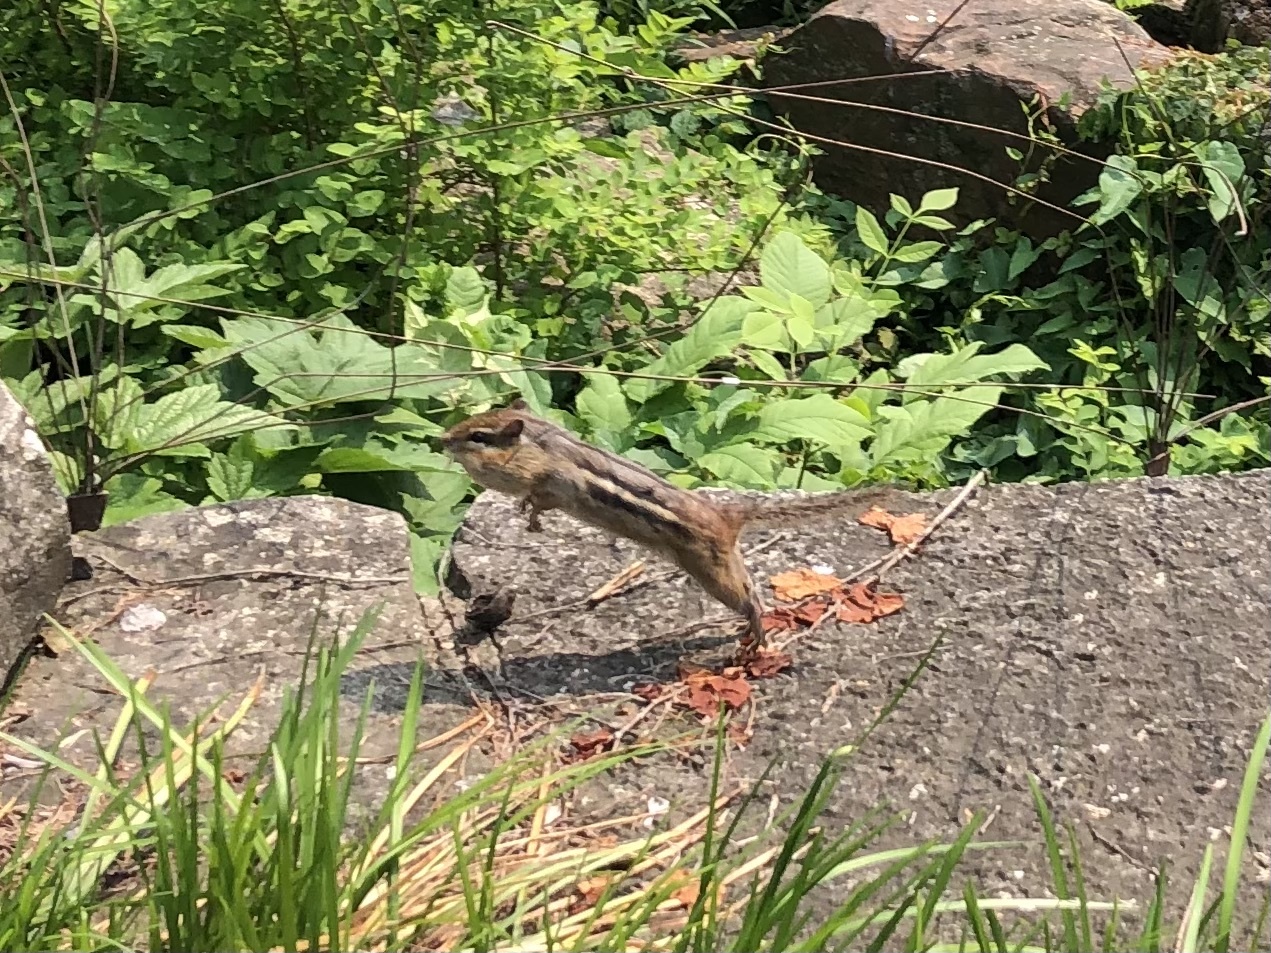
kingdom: Animalia
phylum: Chordata
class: Mammalia
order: Rodentia
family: Sciuridae
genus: Tamias
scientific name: Tamias striatus
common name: Eastern chipmunk
